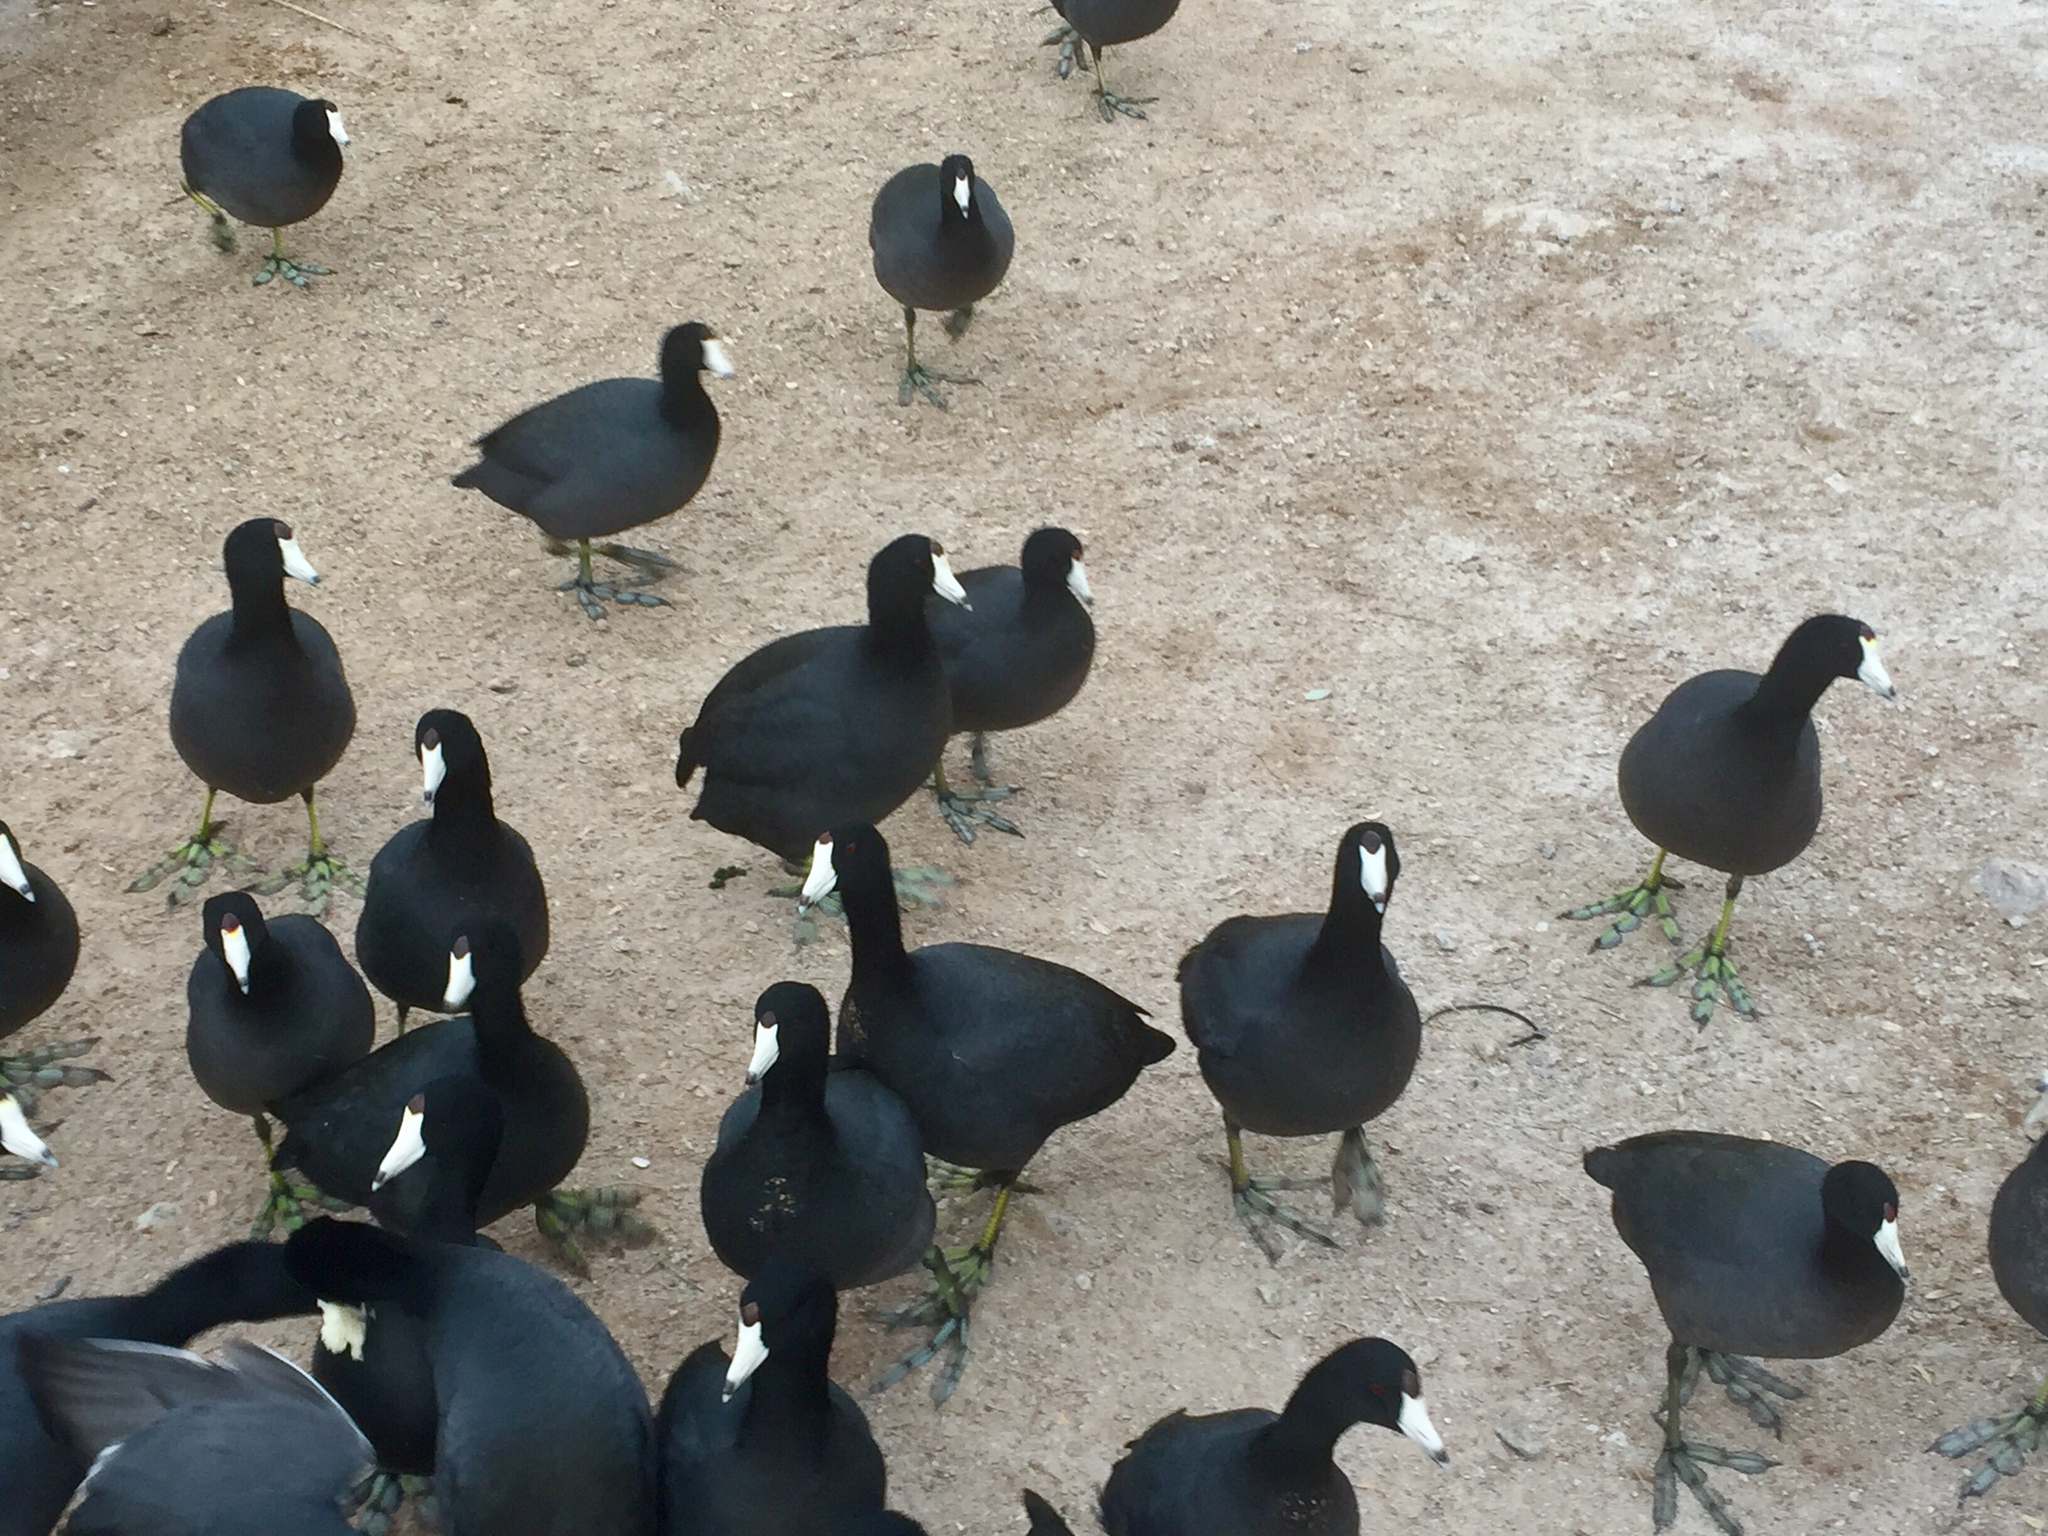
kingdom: Animalia
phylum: Chordata
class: Aves
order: Gruiformes
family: Rallidae
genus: Fulica
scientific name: Fulica americana
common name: American coot
